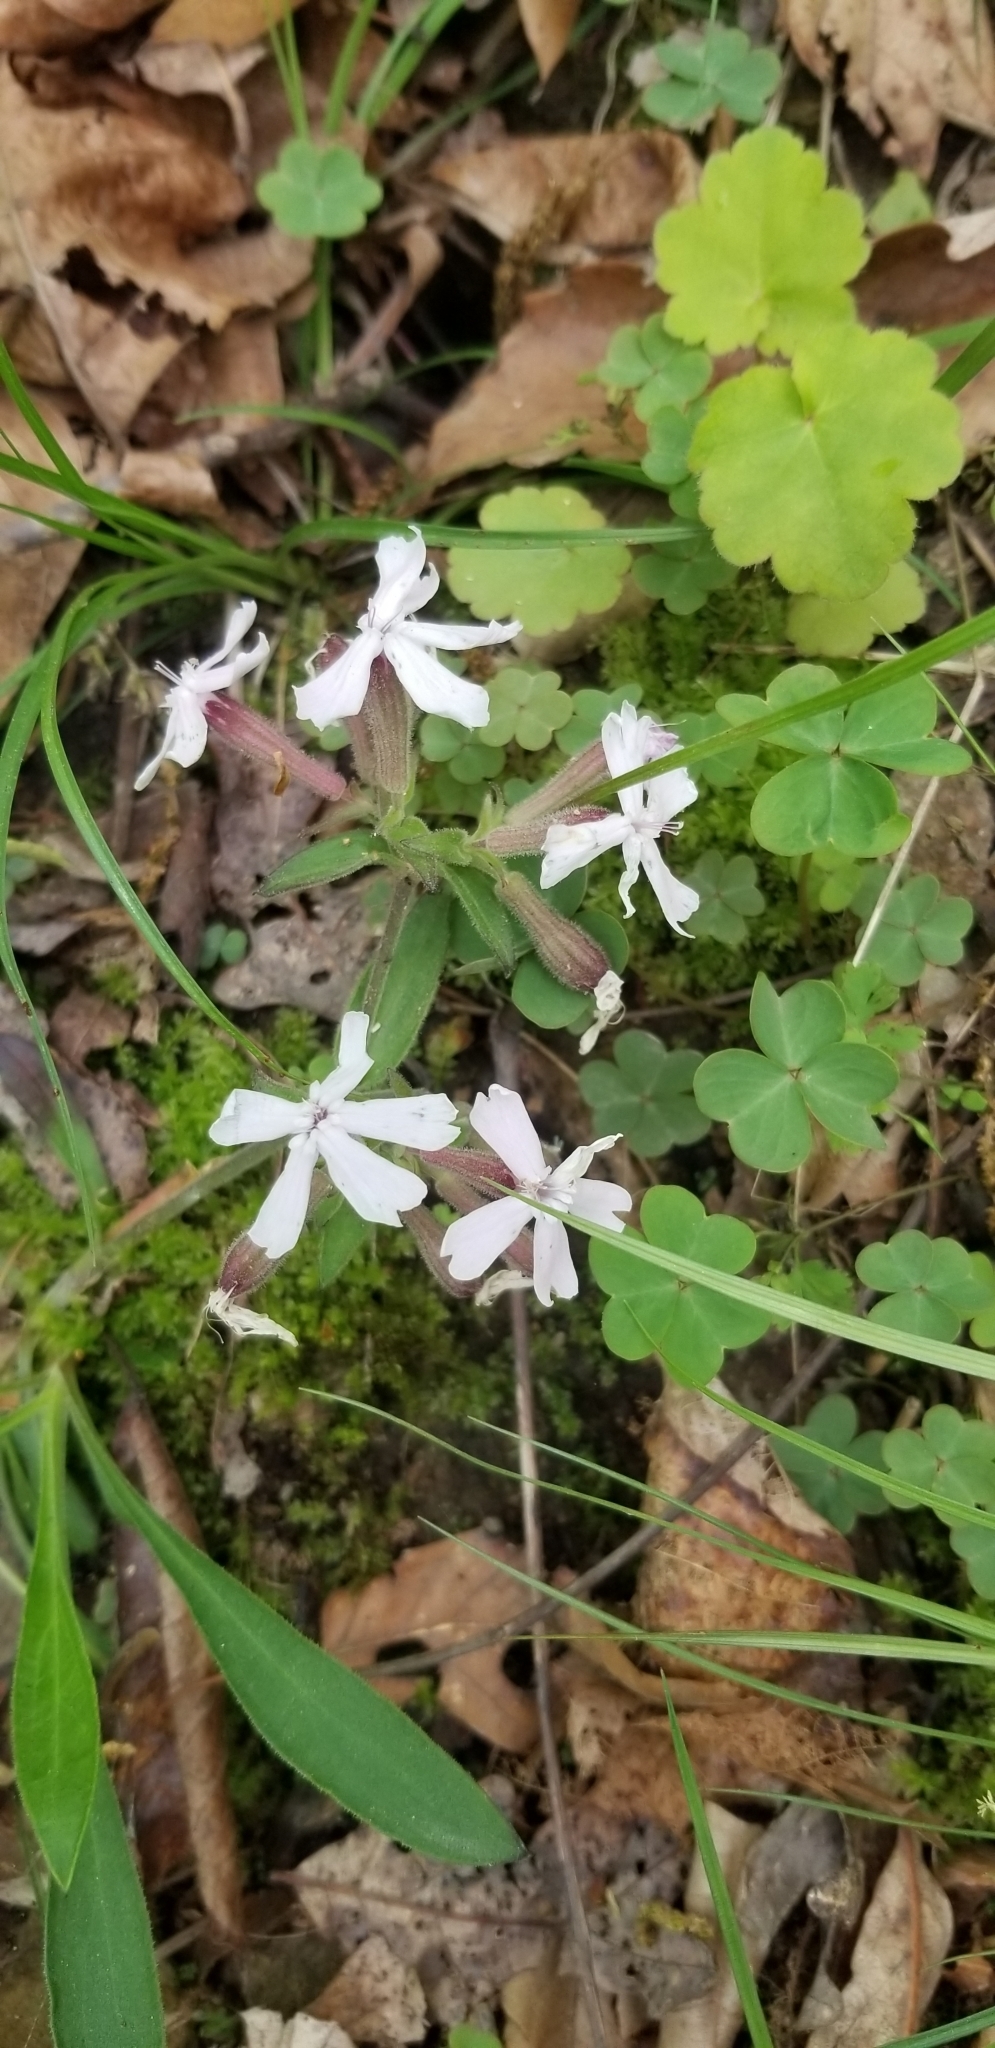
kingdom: Plantae
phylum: Tracheophyta
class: Magnoliopsida
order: Caryophyllales
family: Caryophyllaceae
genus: Silene
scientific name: Silene caroliniana
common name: Sticky catchfly
